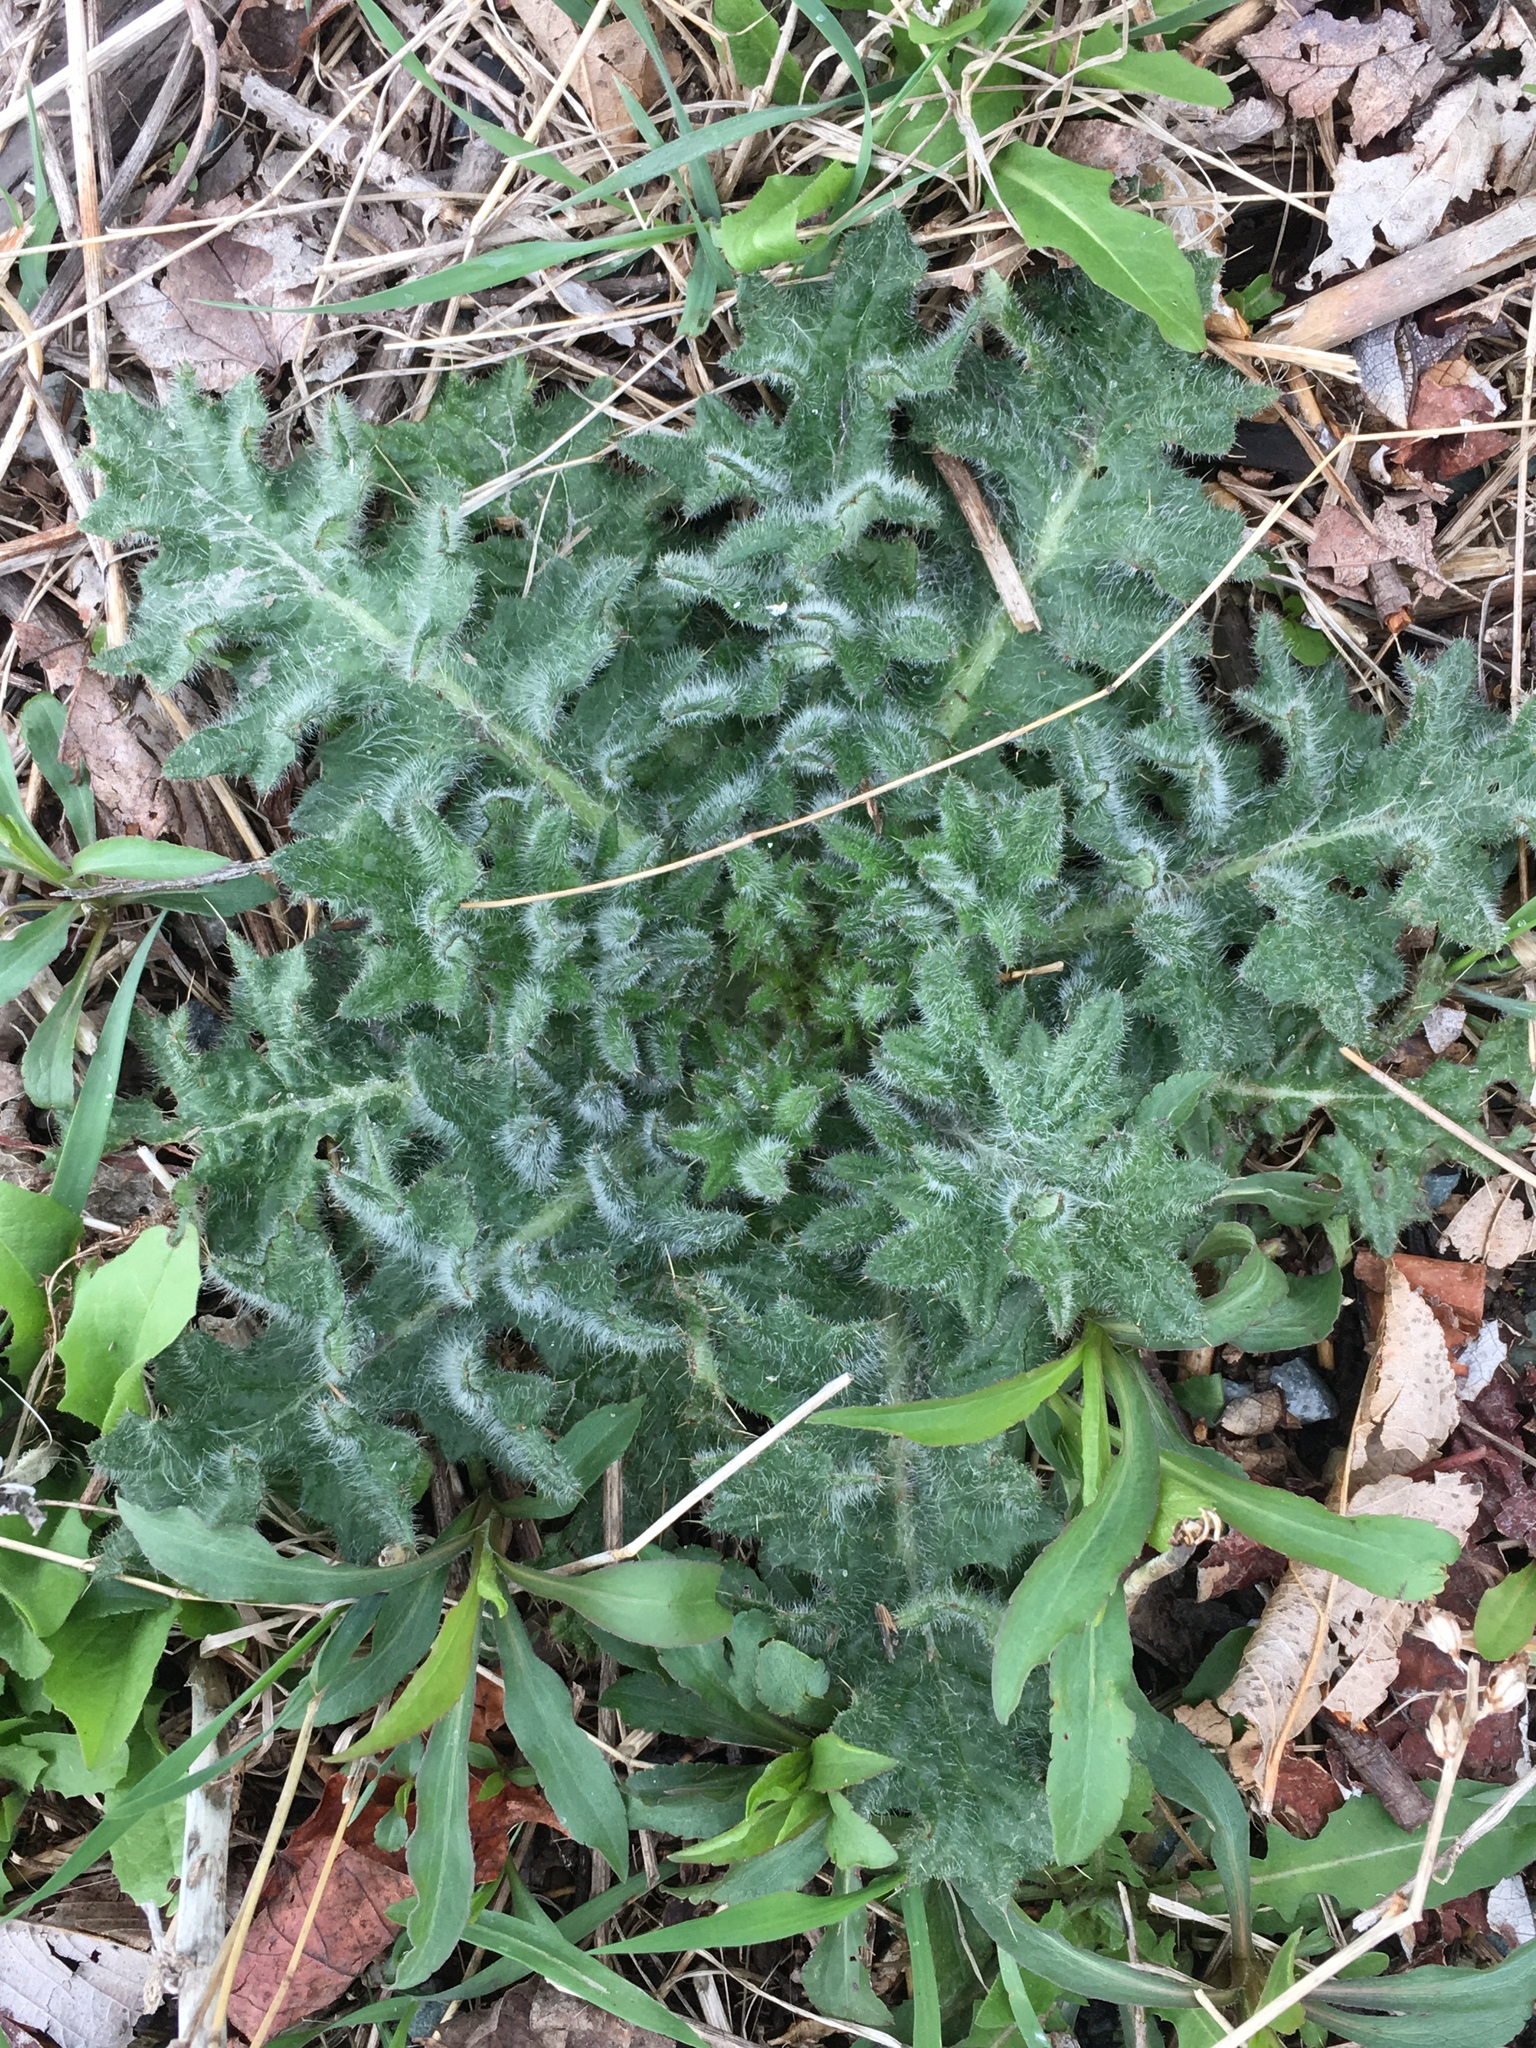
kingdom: Plantae
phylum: Tracheophyta
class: Magnoliopsida
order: Asterales
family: Asteraceae
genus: Cirsium
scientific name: Cirsium vulgare
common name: Bull thistle
